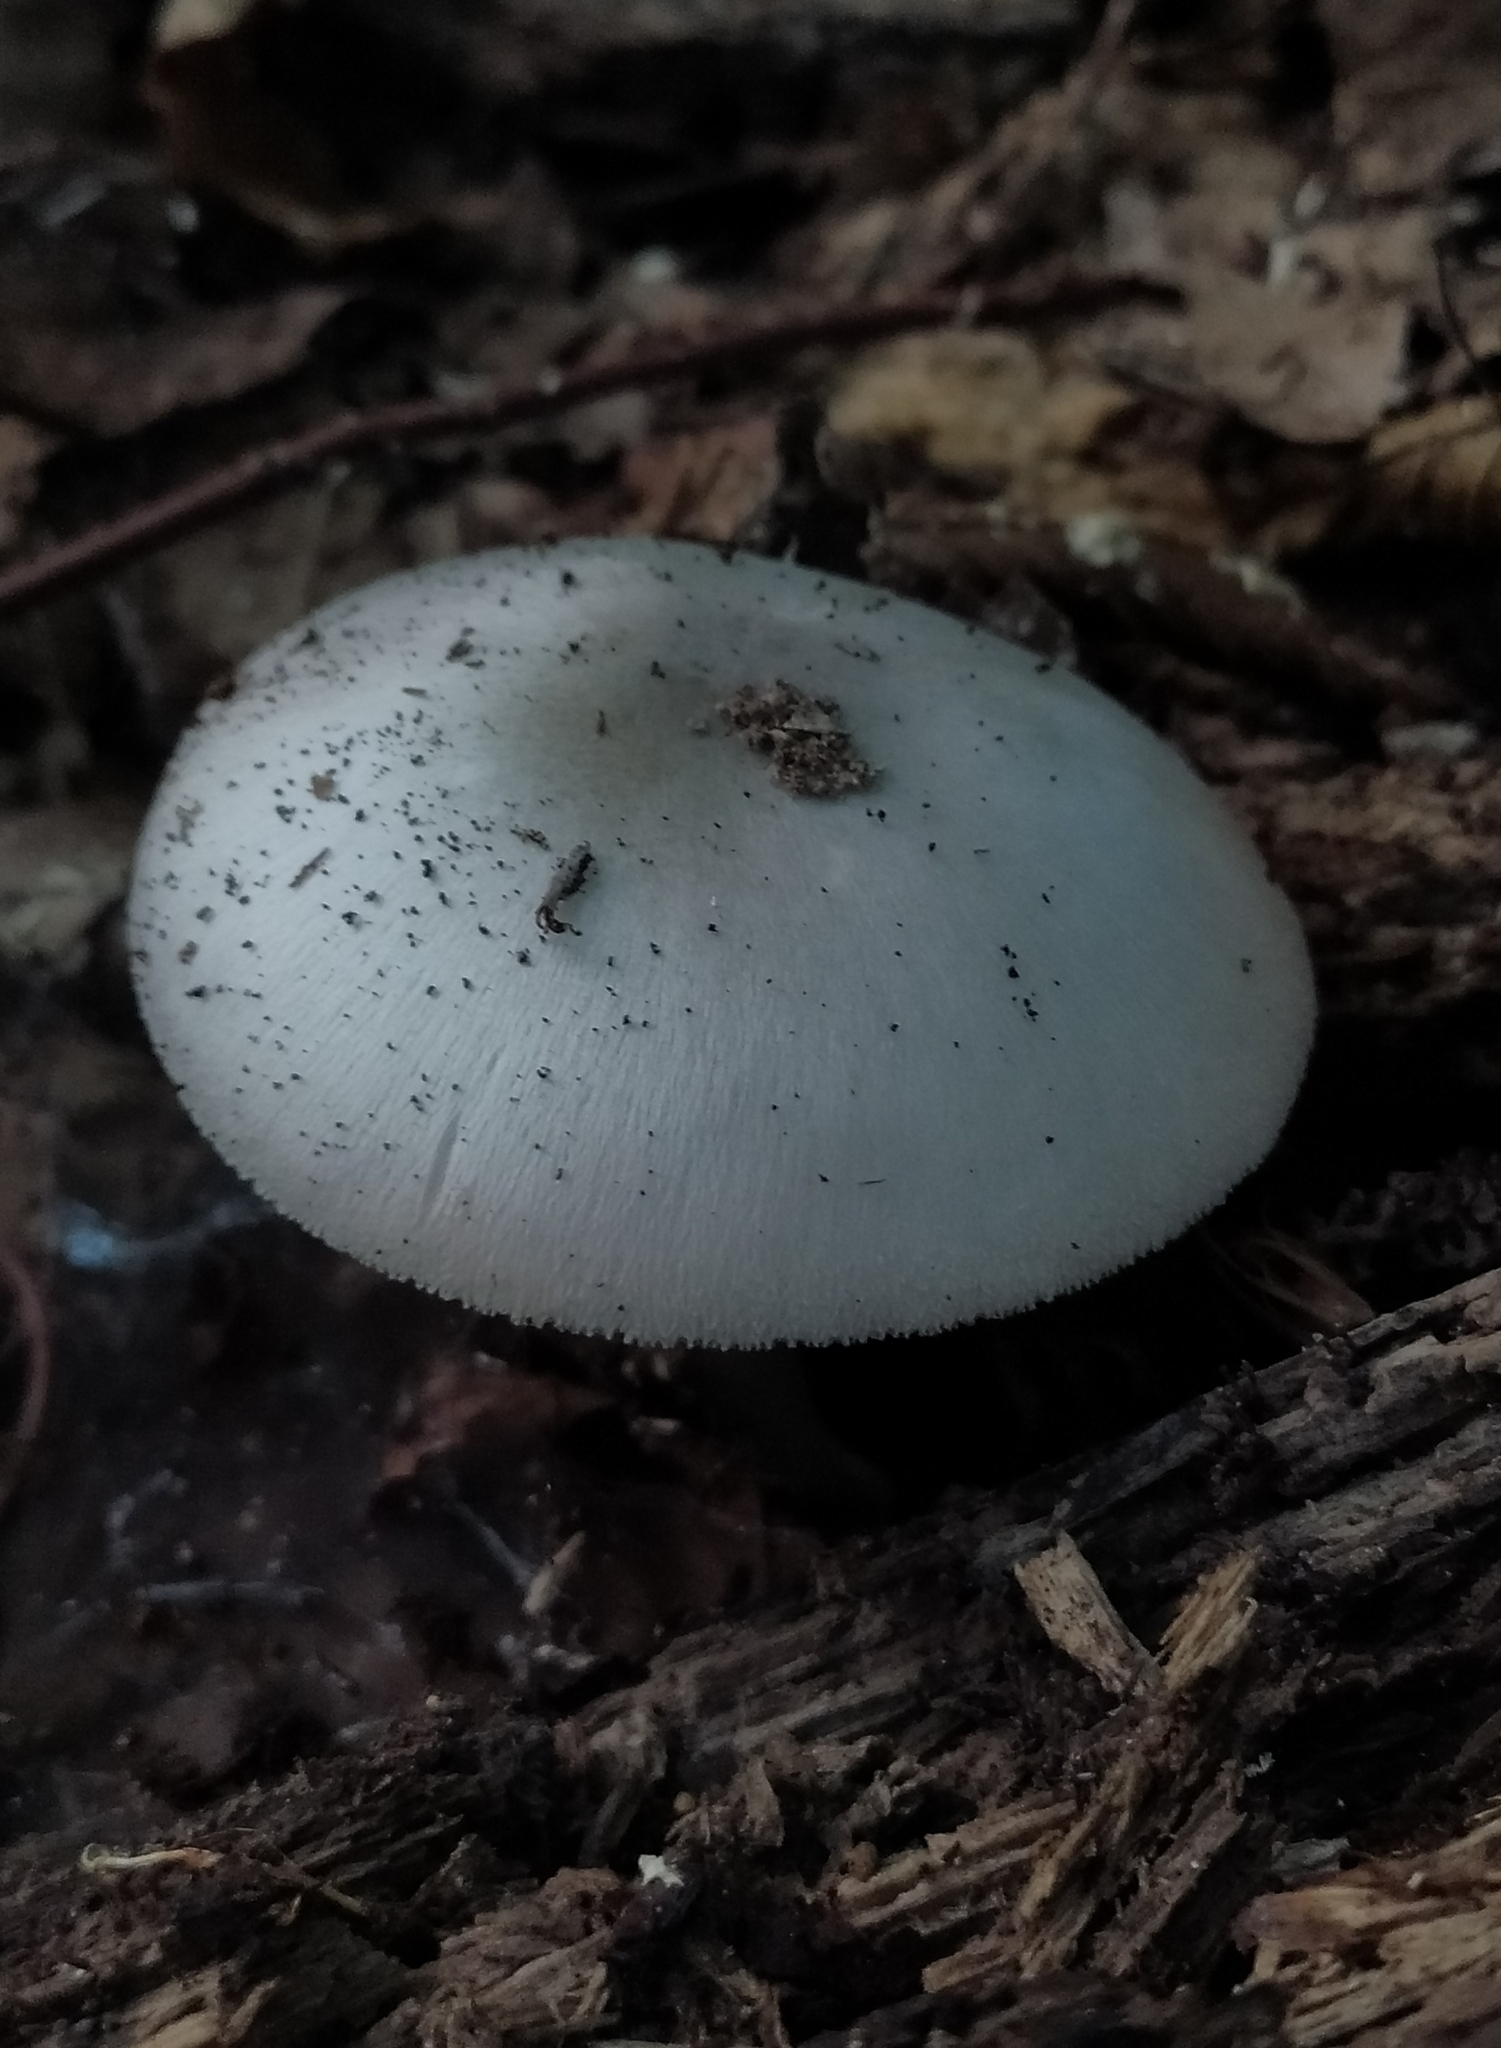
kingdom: Fungi
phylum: Basidiomycota
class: Agaricomycetes
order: Agaricales
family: Pluteaceae
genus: Pluteus
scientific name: Pluteus salicinus
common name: Willow shield
